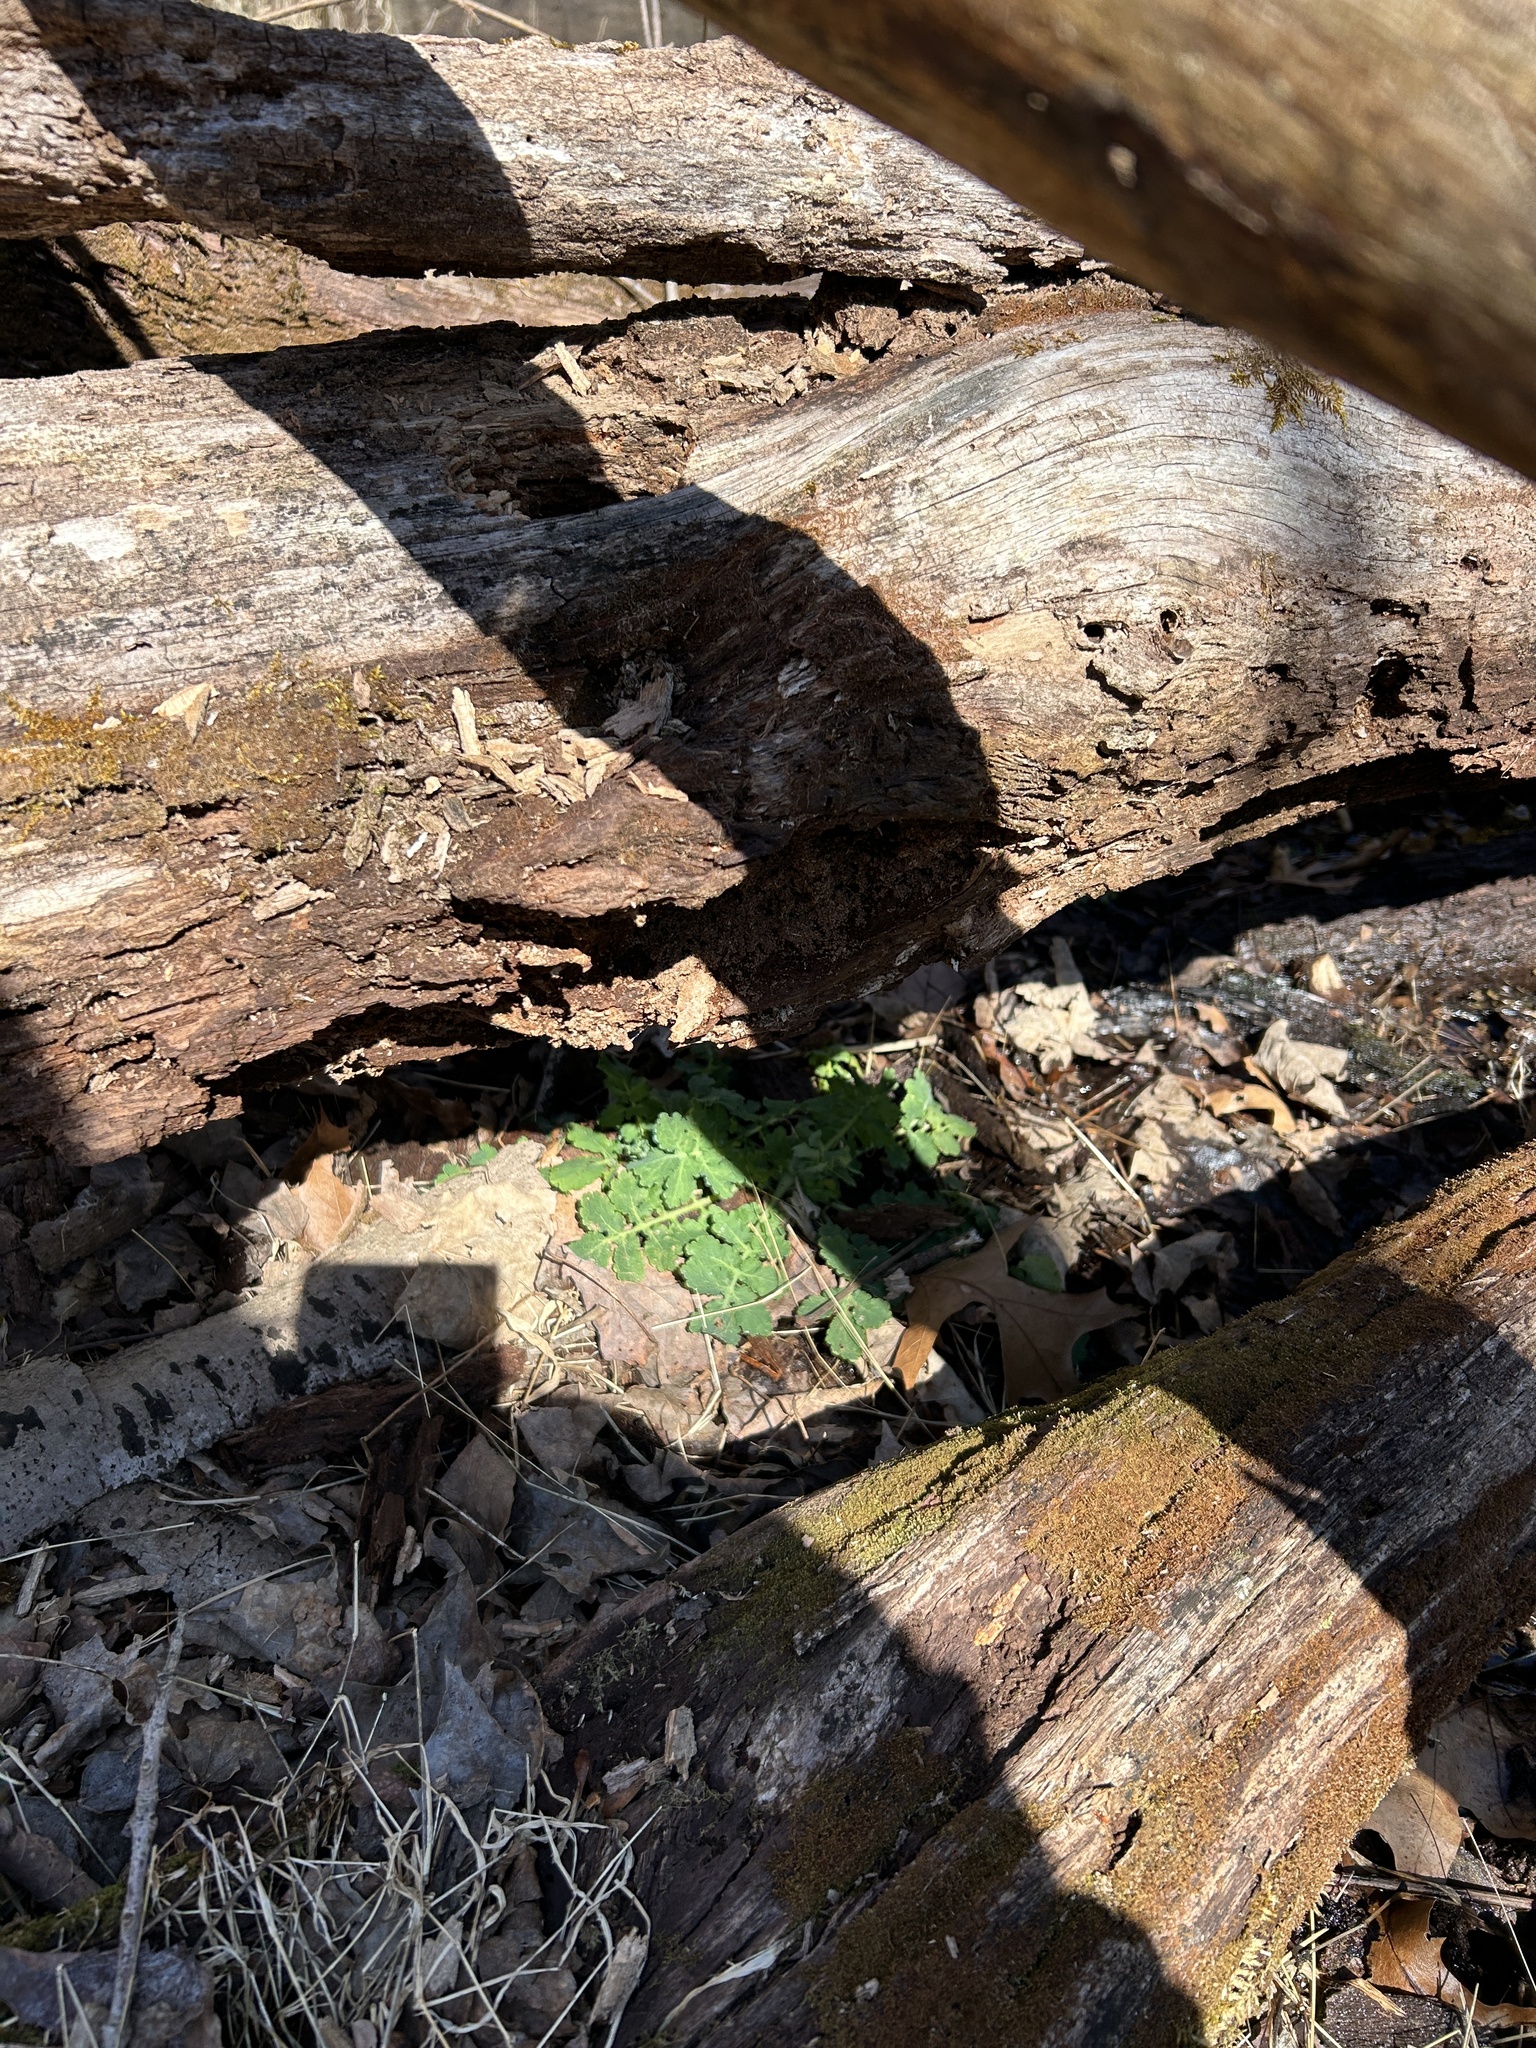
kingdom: Plantae
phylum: Tracheophyta
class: Magnoliopsida
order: Ranunculales
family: Papaveraceae
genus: Chelidonium
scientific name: Chelidonium majus
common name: Greater celandine
